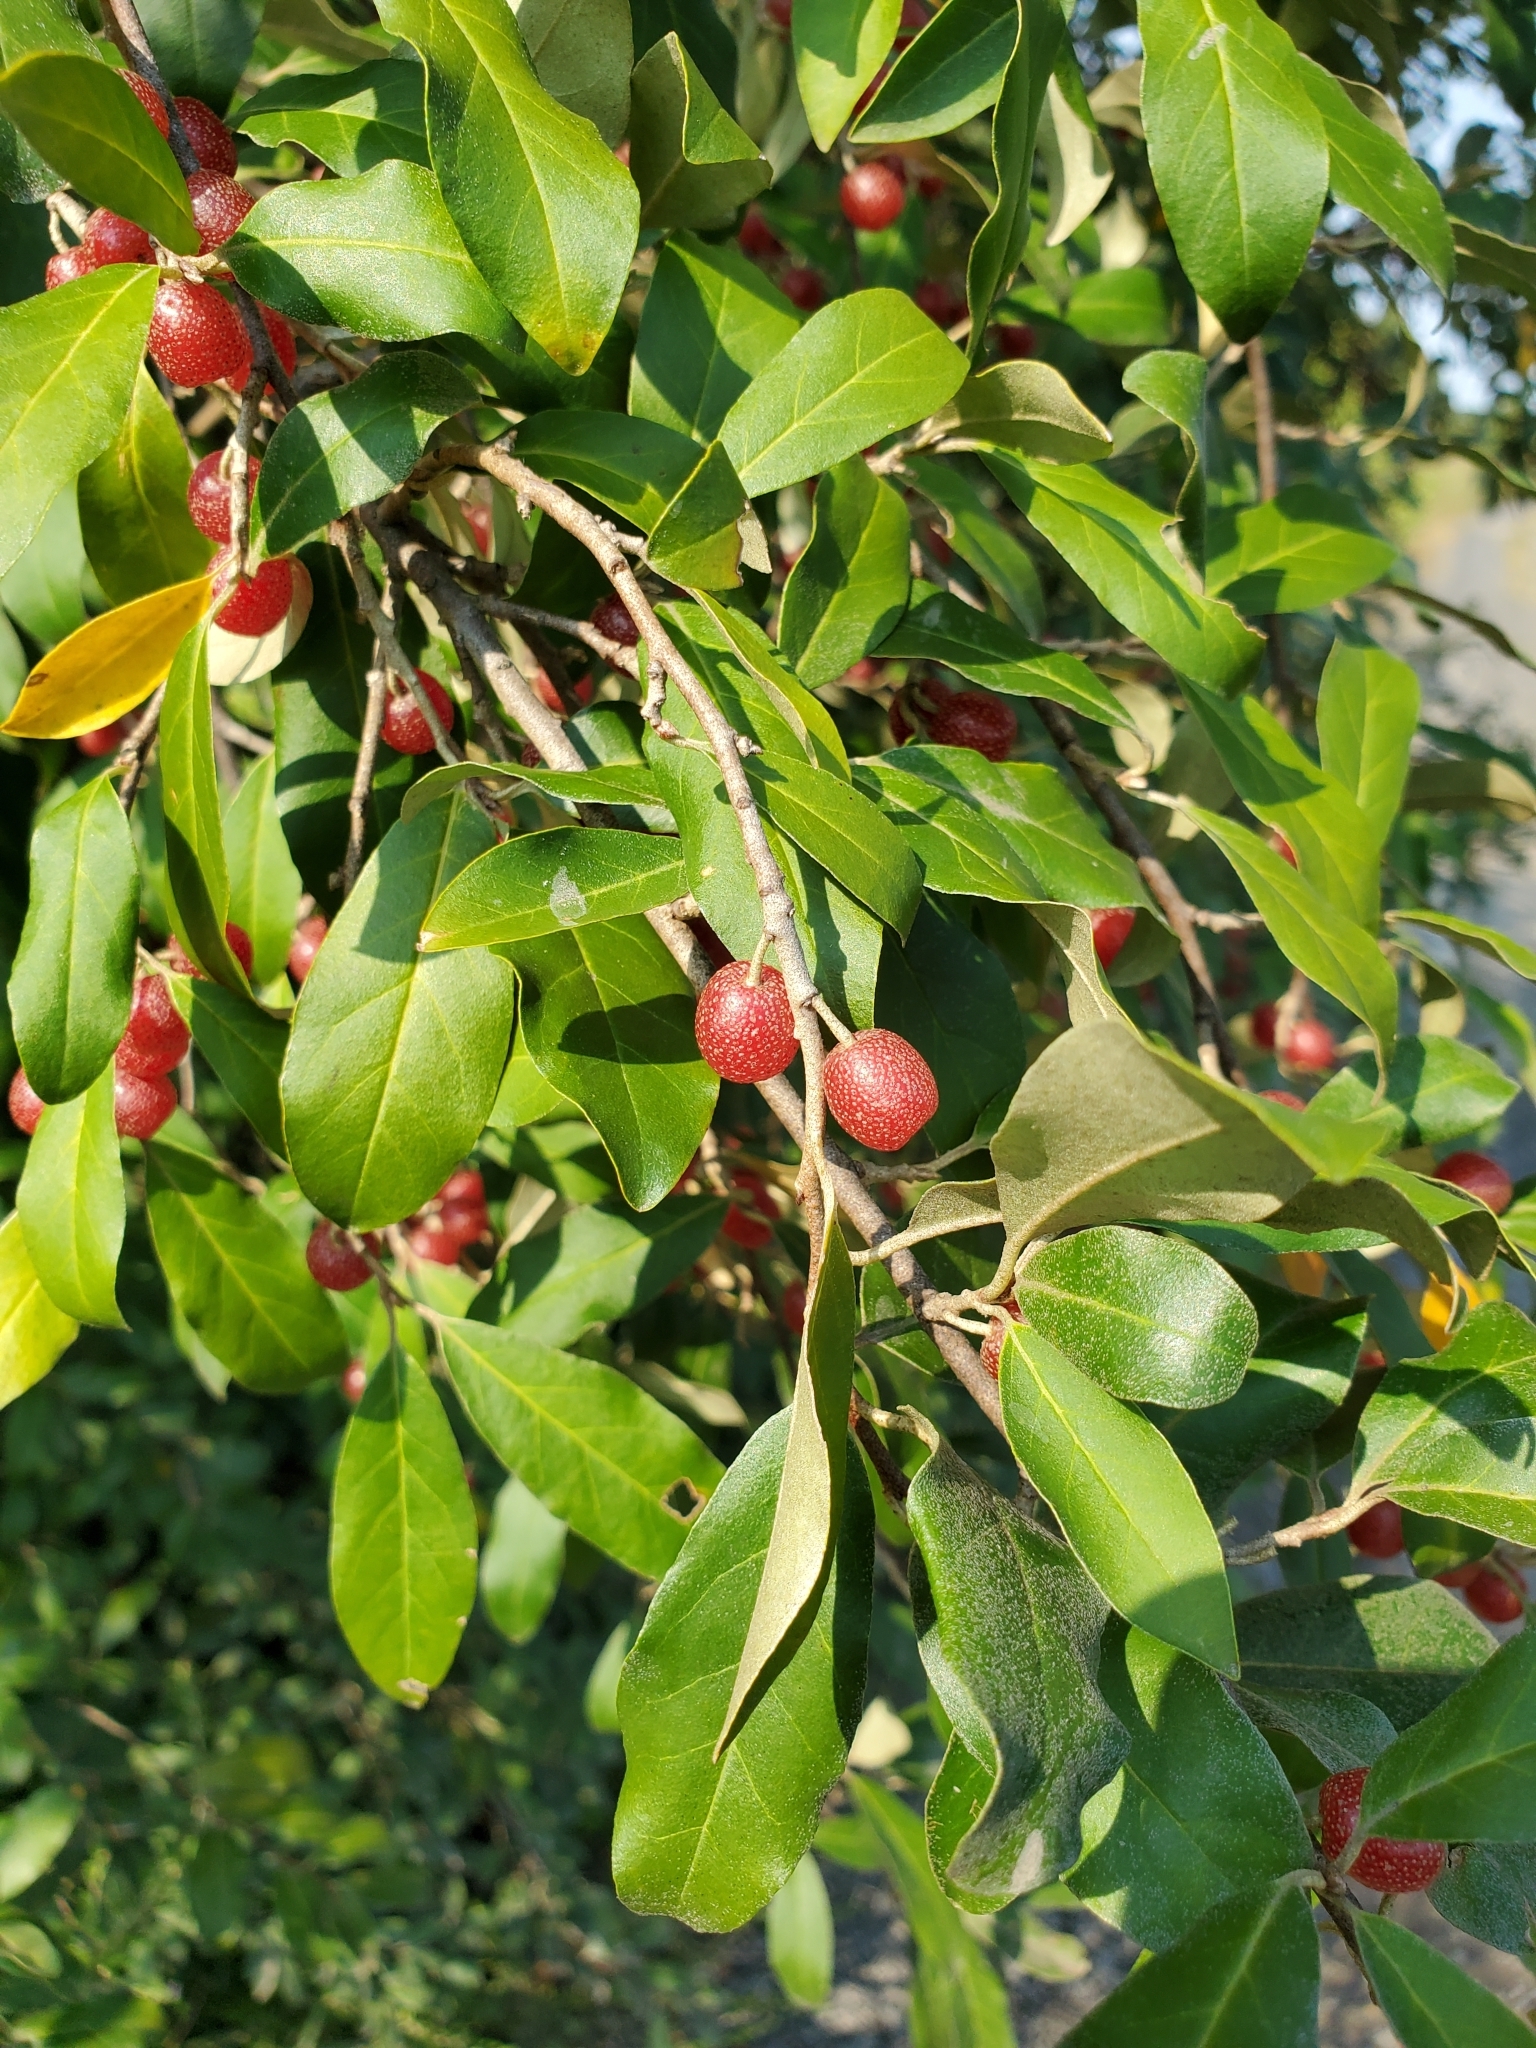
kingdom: Plantae
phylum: Tracheophyta
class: Magnoliopsida
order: Rosales
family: Elaeagnaceae
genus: Elaeagnus
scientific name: Elaeagnus umbellata
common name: Autumn olive
